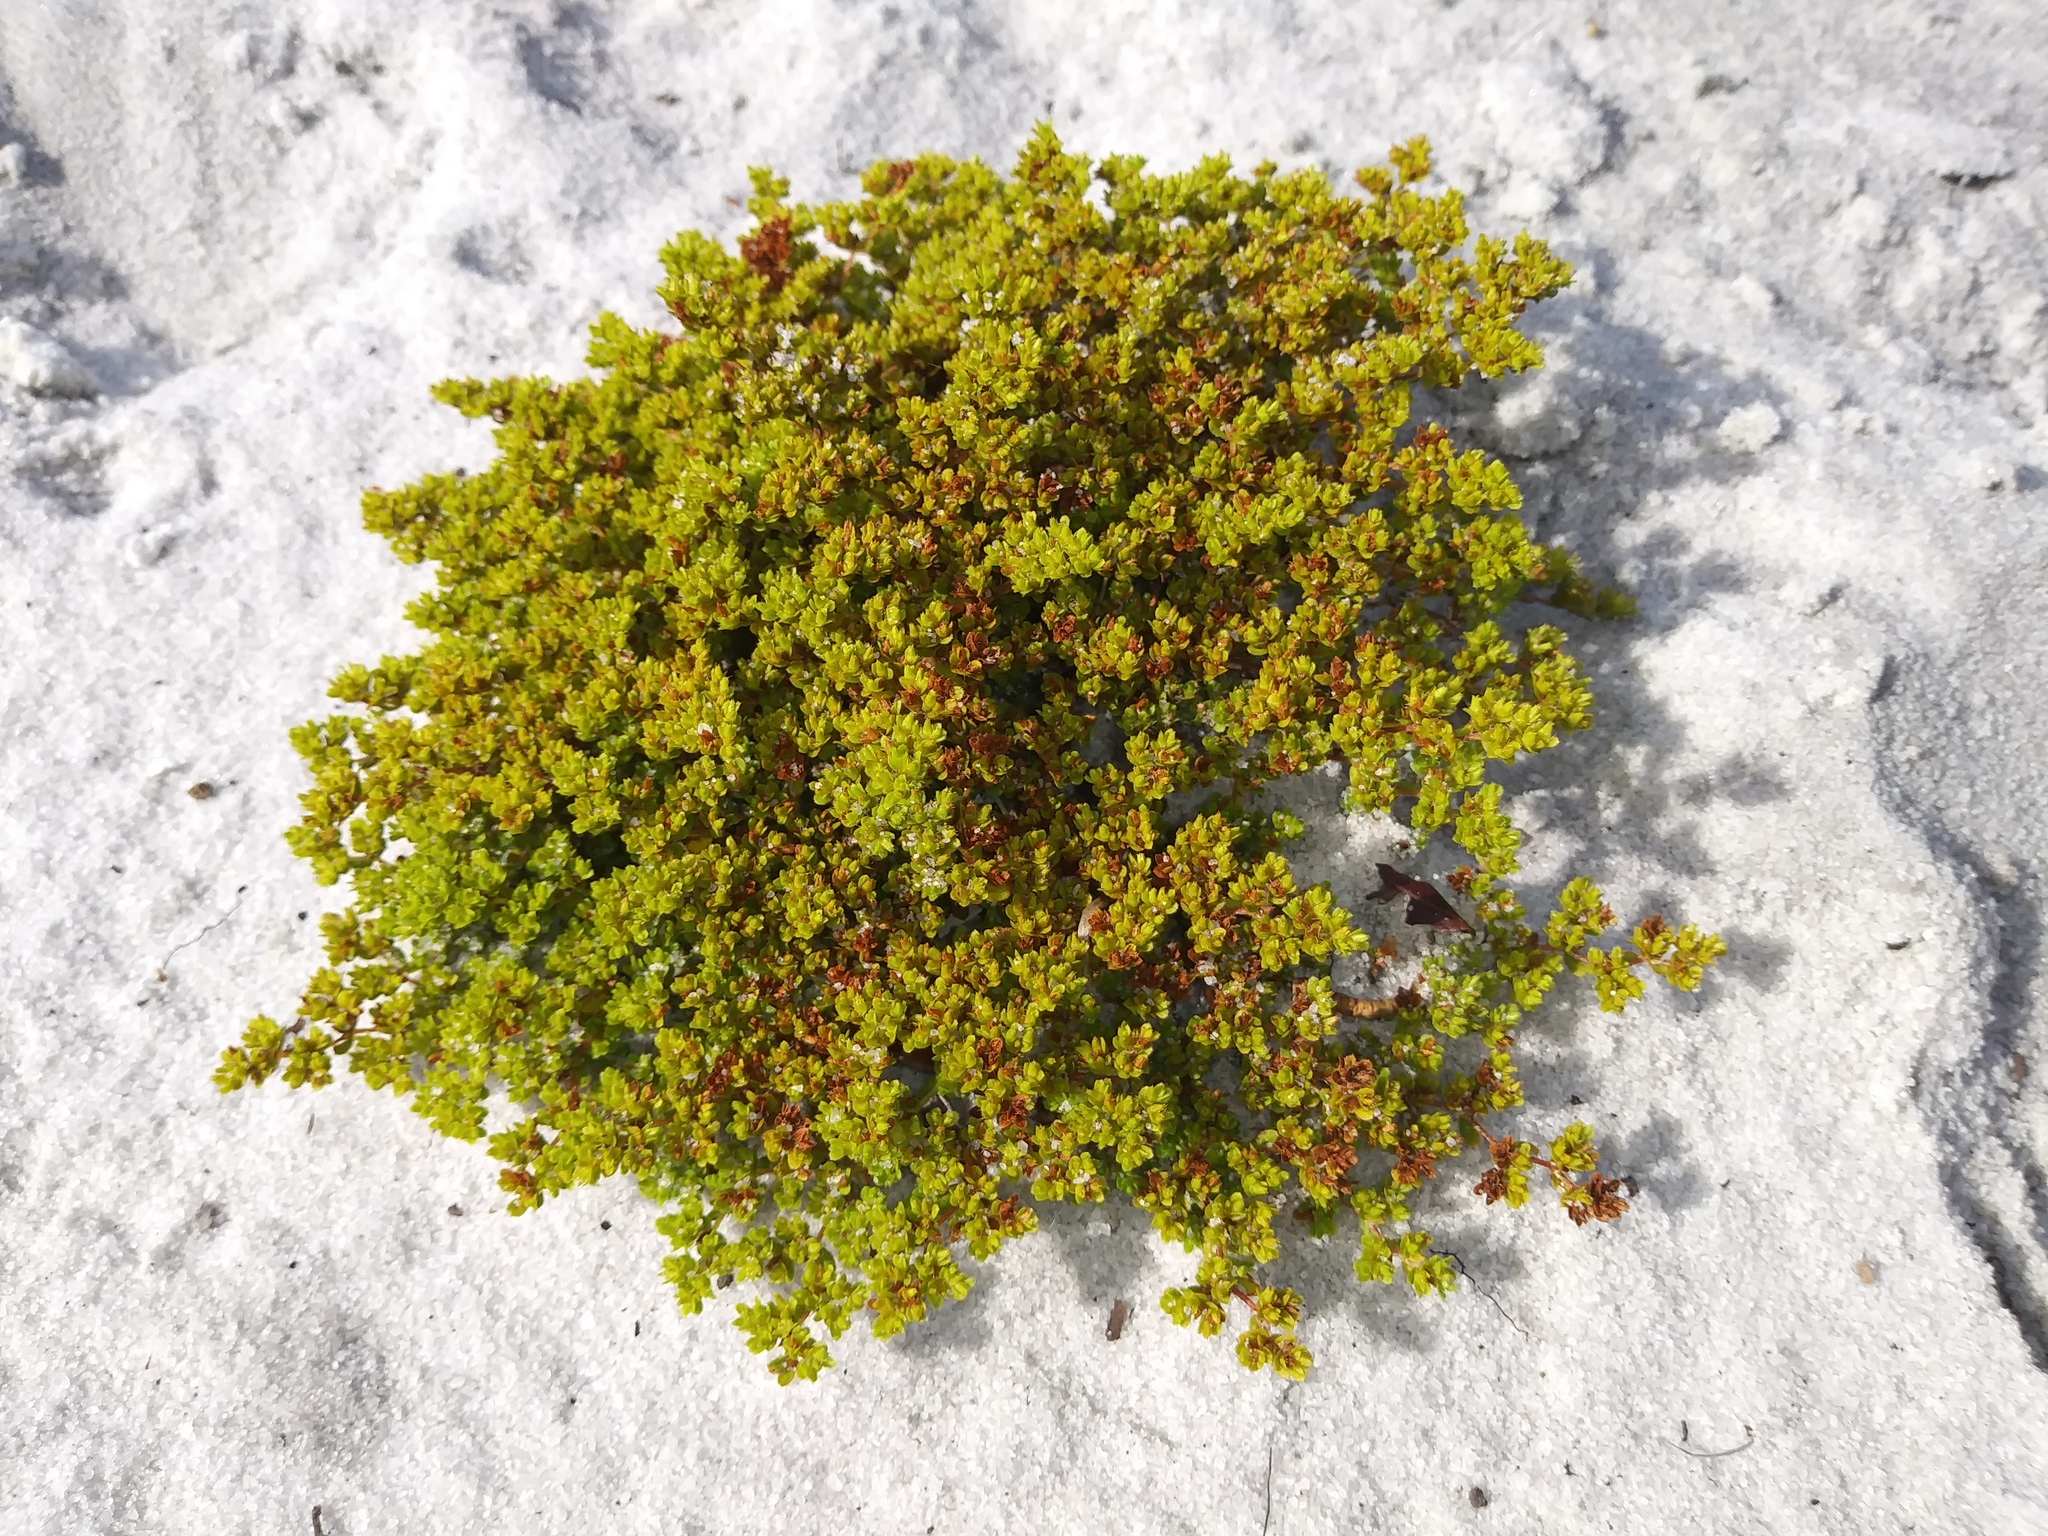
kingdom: Plantae
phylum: Tracheophyta
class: Magnoliopsida
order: Caryophyllales
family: Caryophyllaceae
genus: Paronychia
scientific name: Paronychia chartacea
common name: Paper nailwort
